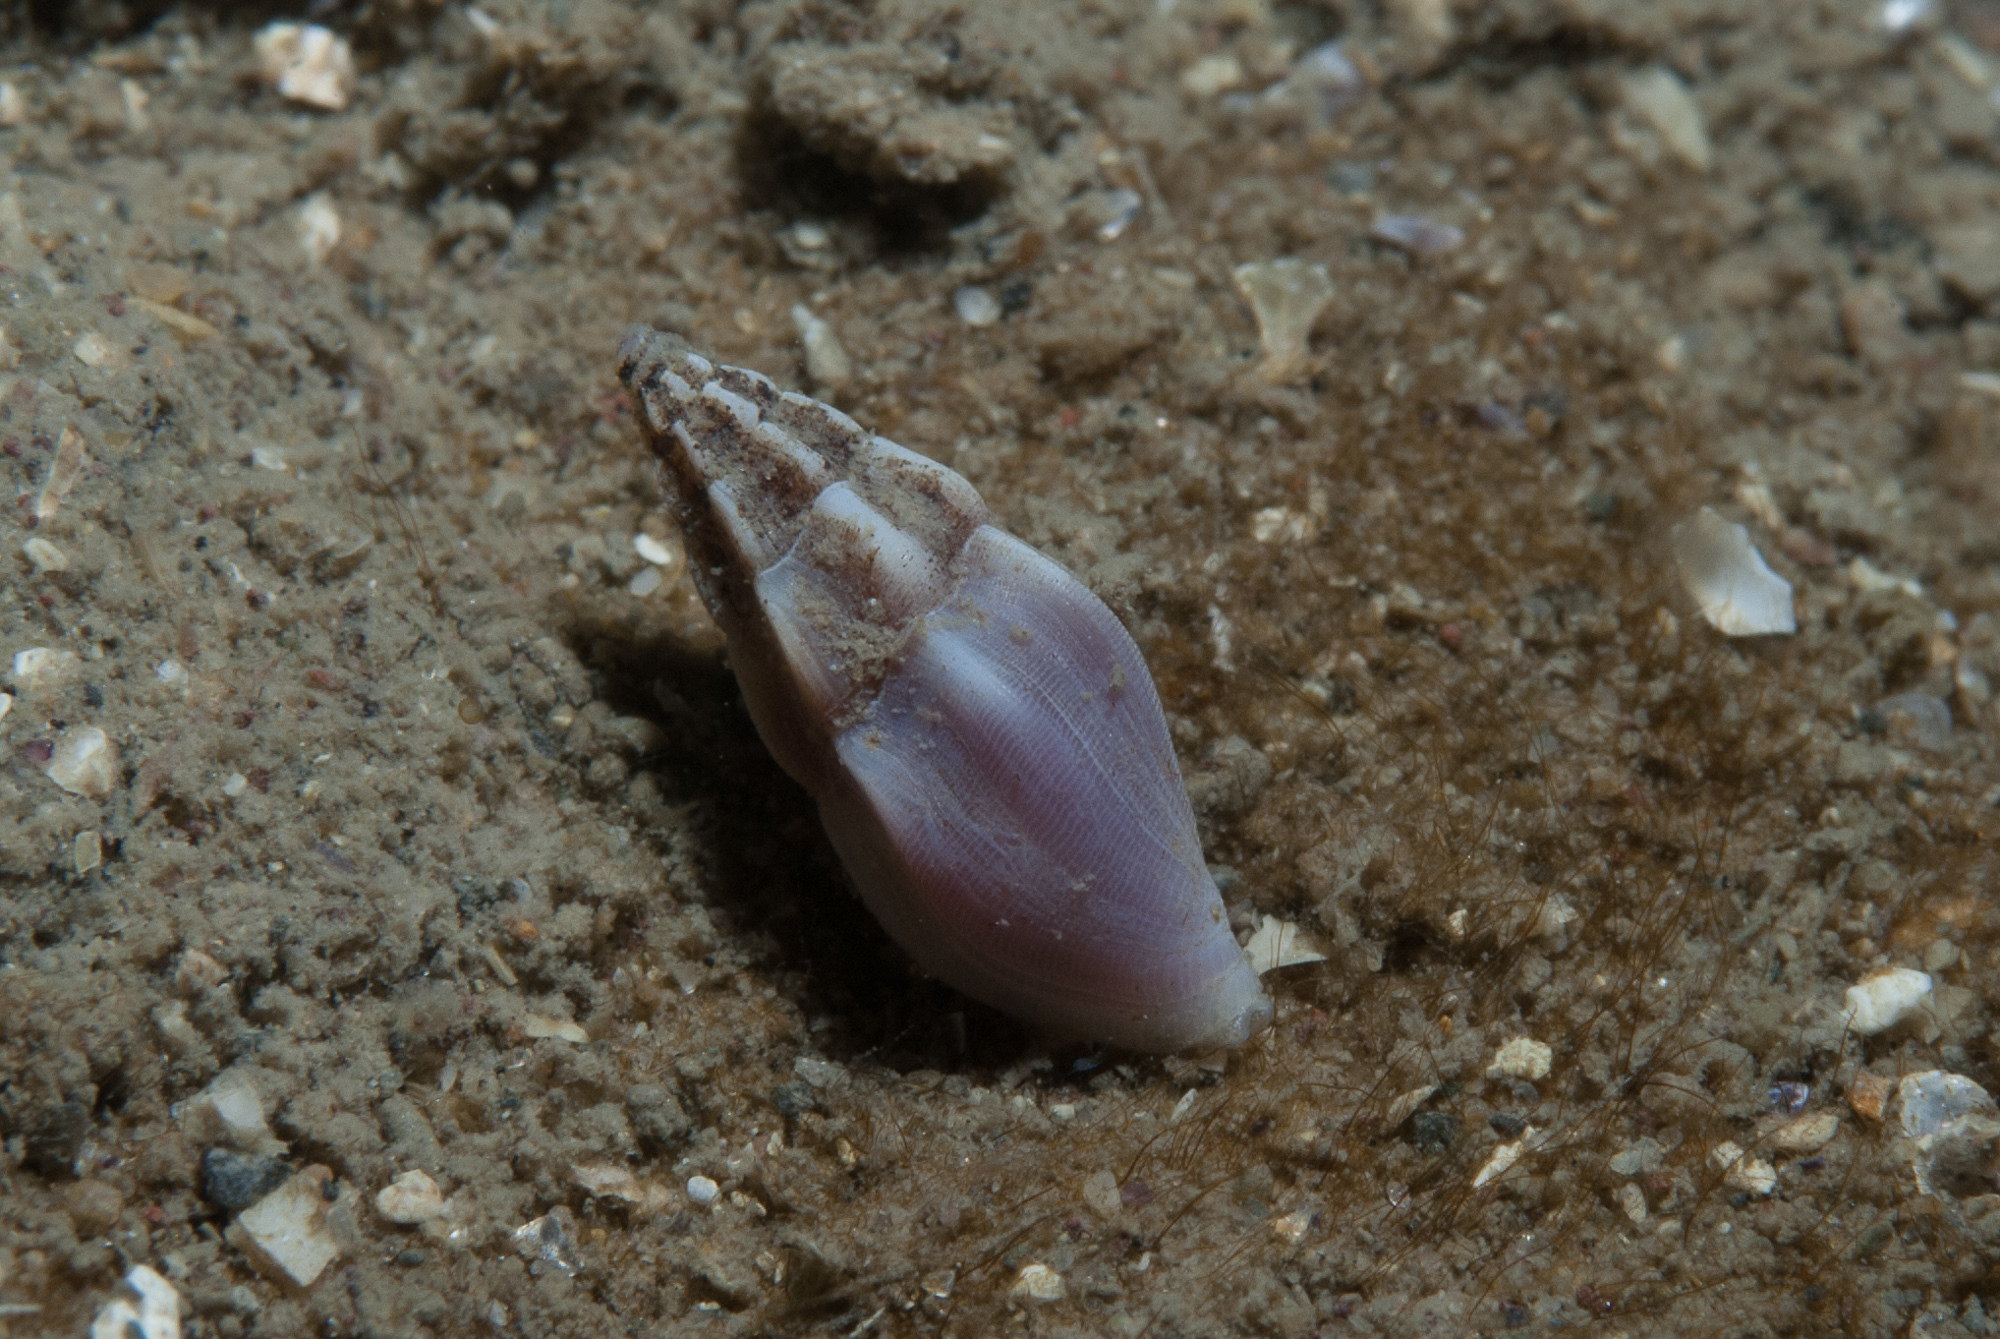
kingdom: Animalia
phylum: Mollusca
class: Gastropoda
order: Neogastropoda
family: Horaiclavidae
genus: Haedropleura
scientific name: Haedropleura septangularis
